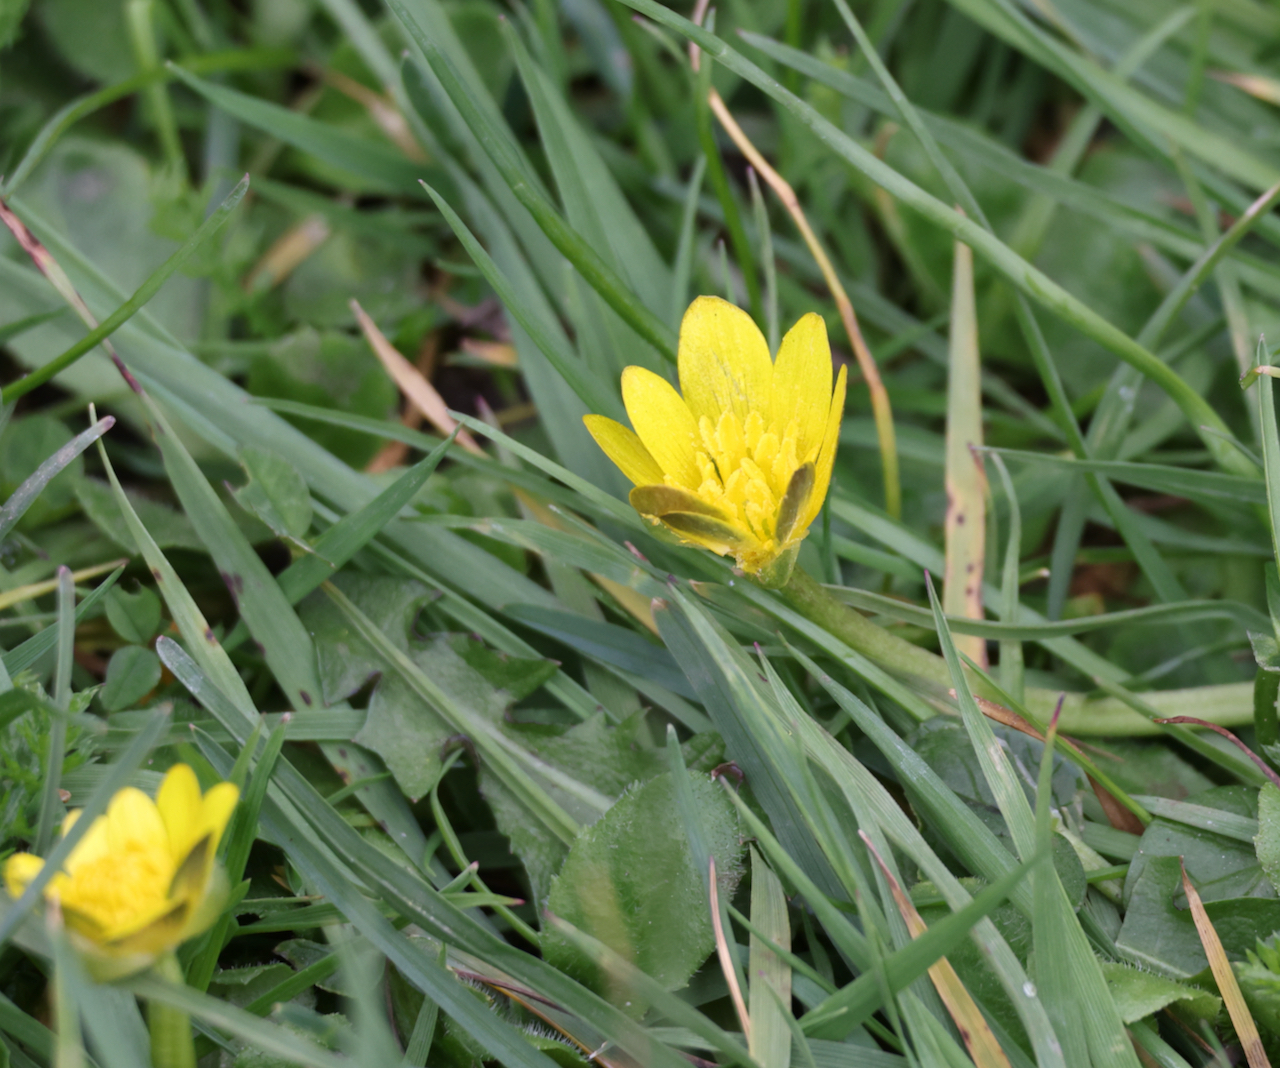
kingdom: Plantae
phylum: Tracheophyta
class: Magnoliopsida
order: Ranunculales
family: Ranunculaceae
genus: Ficaria
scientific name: Ficaria verna
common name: Lesser celandine
